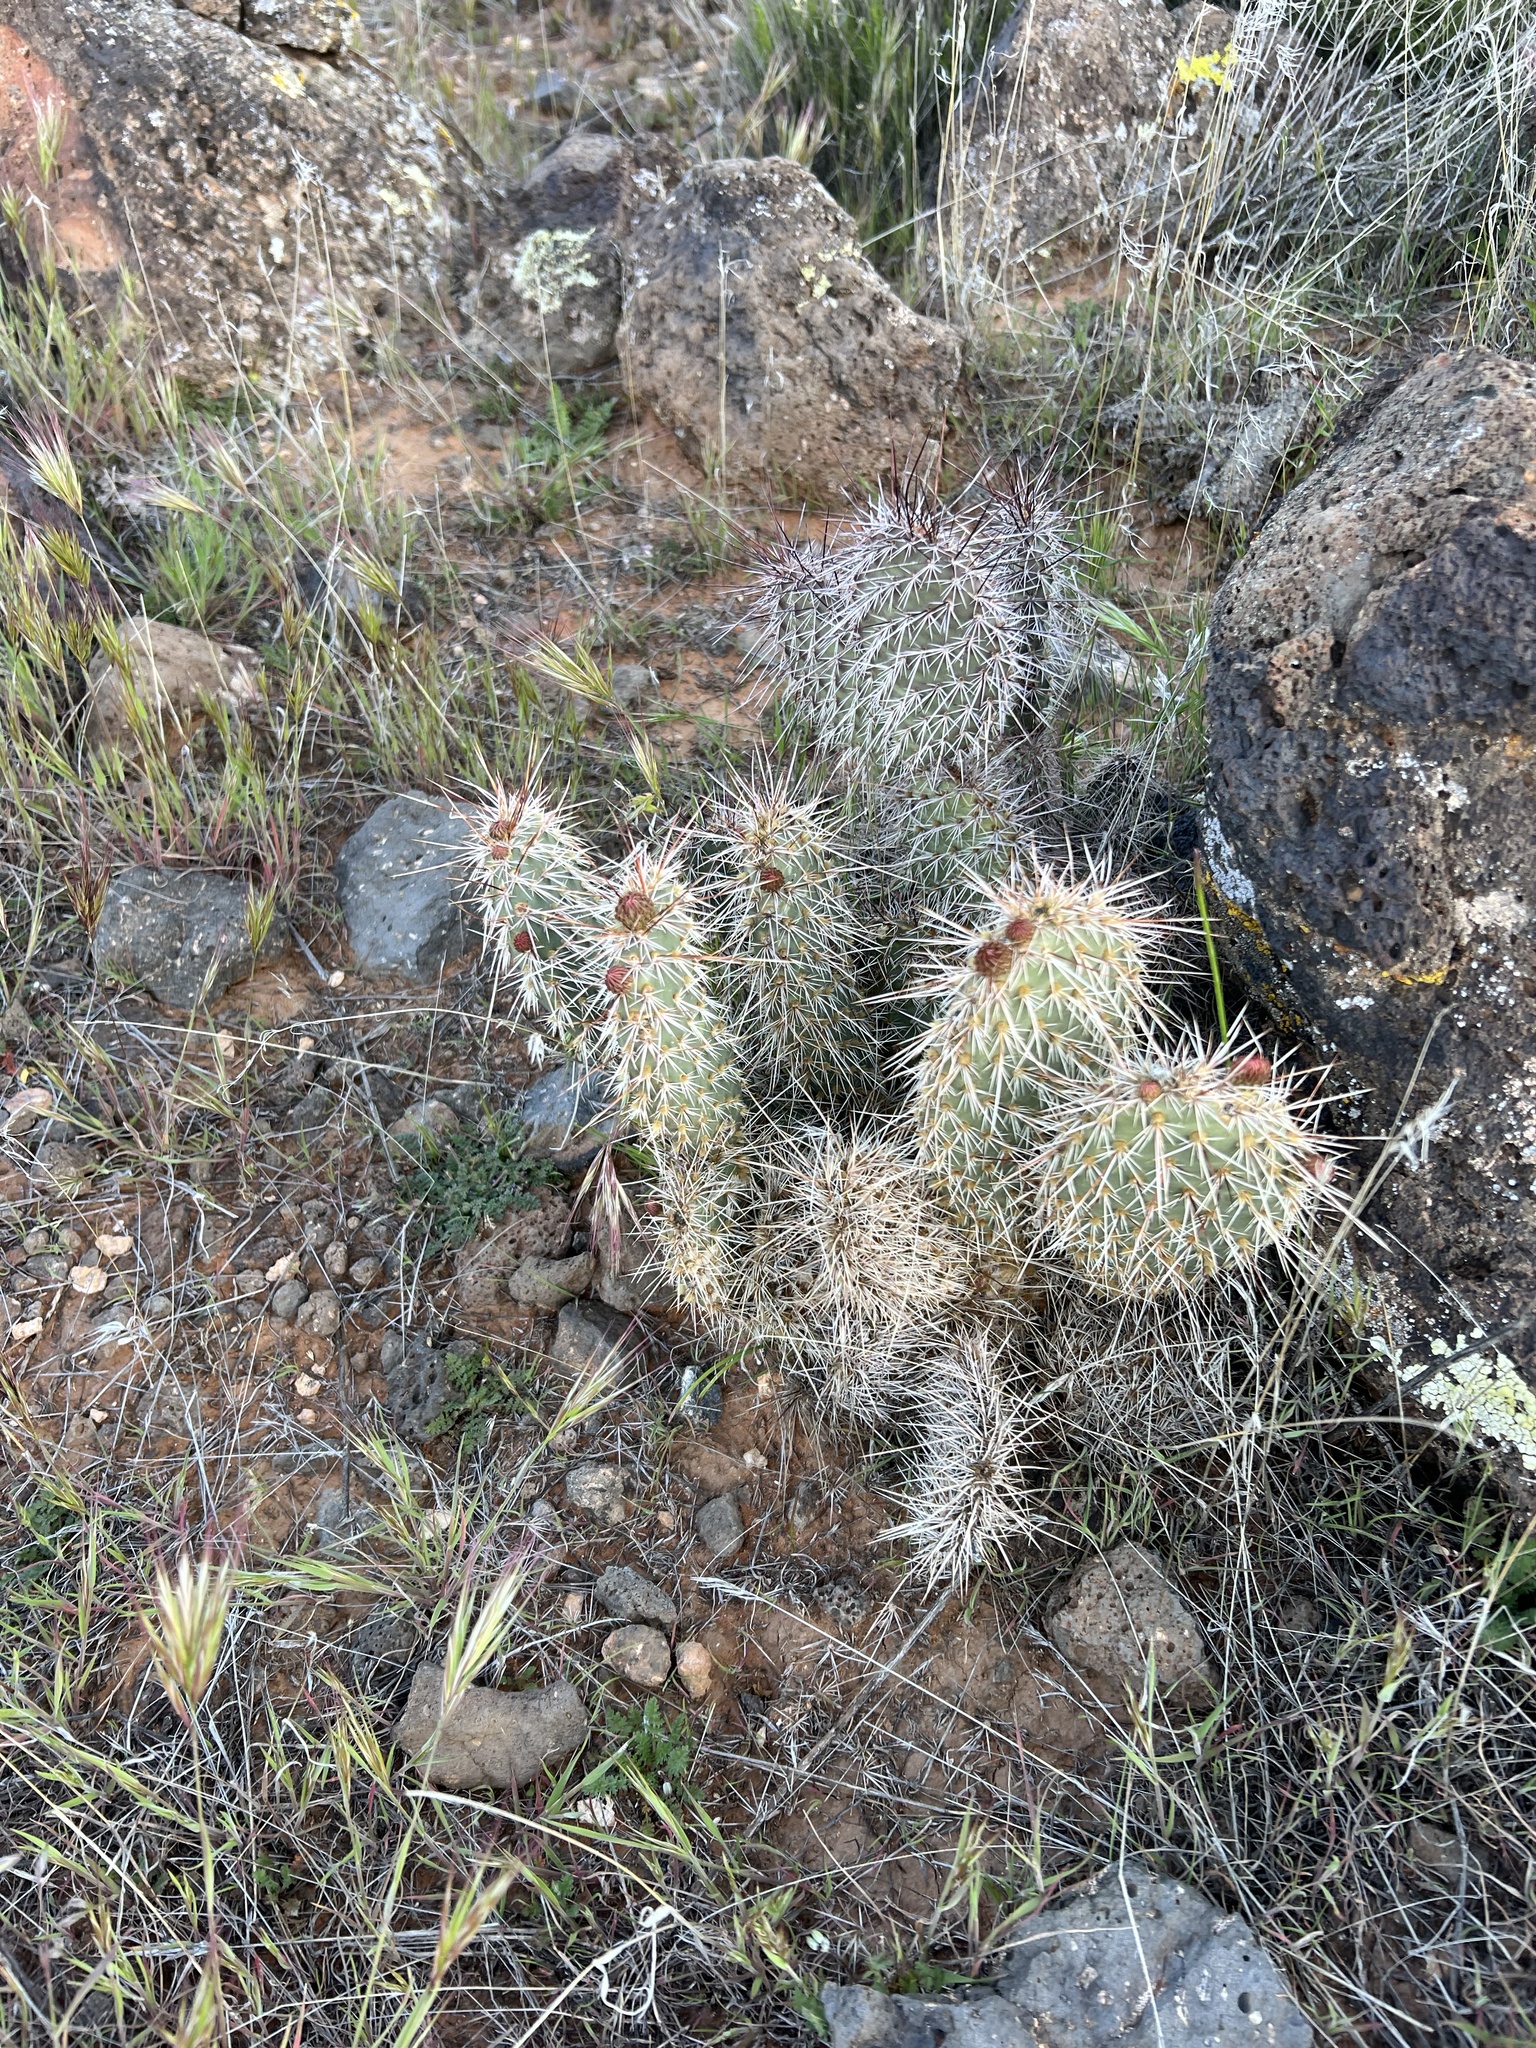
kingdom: Plantae
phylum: Tracheophyta
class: Magnoliopsida
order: Caryophyllales
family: Cactaceae
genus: Opuntia
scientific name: Opuntia polyacantha
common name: Plains prickly-pear
